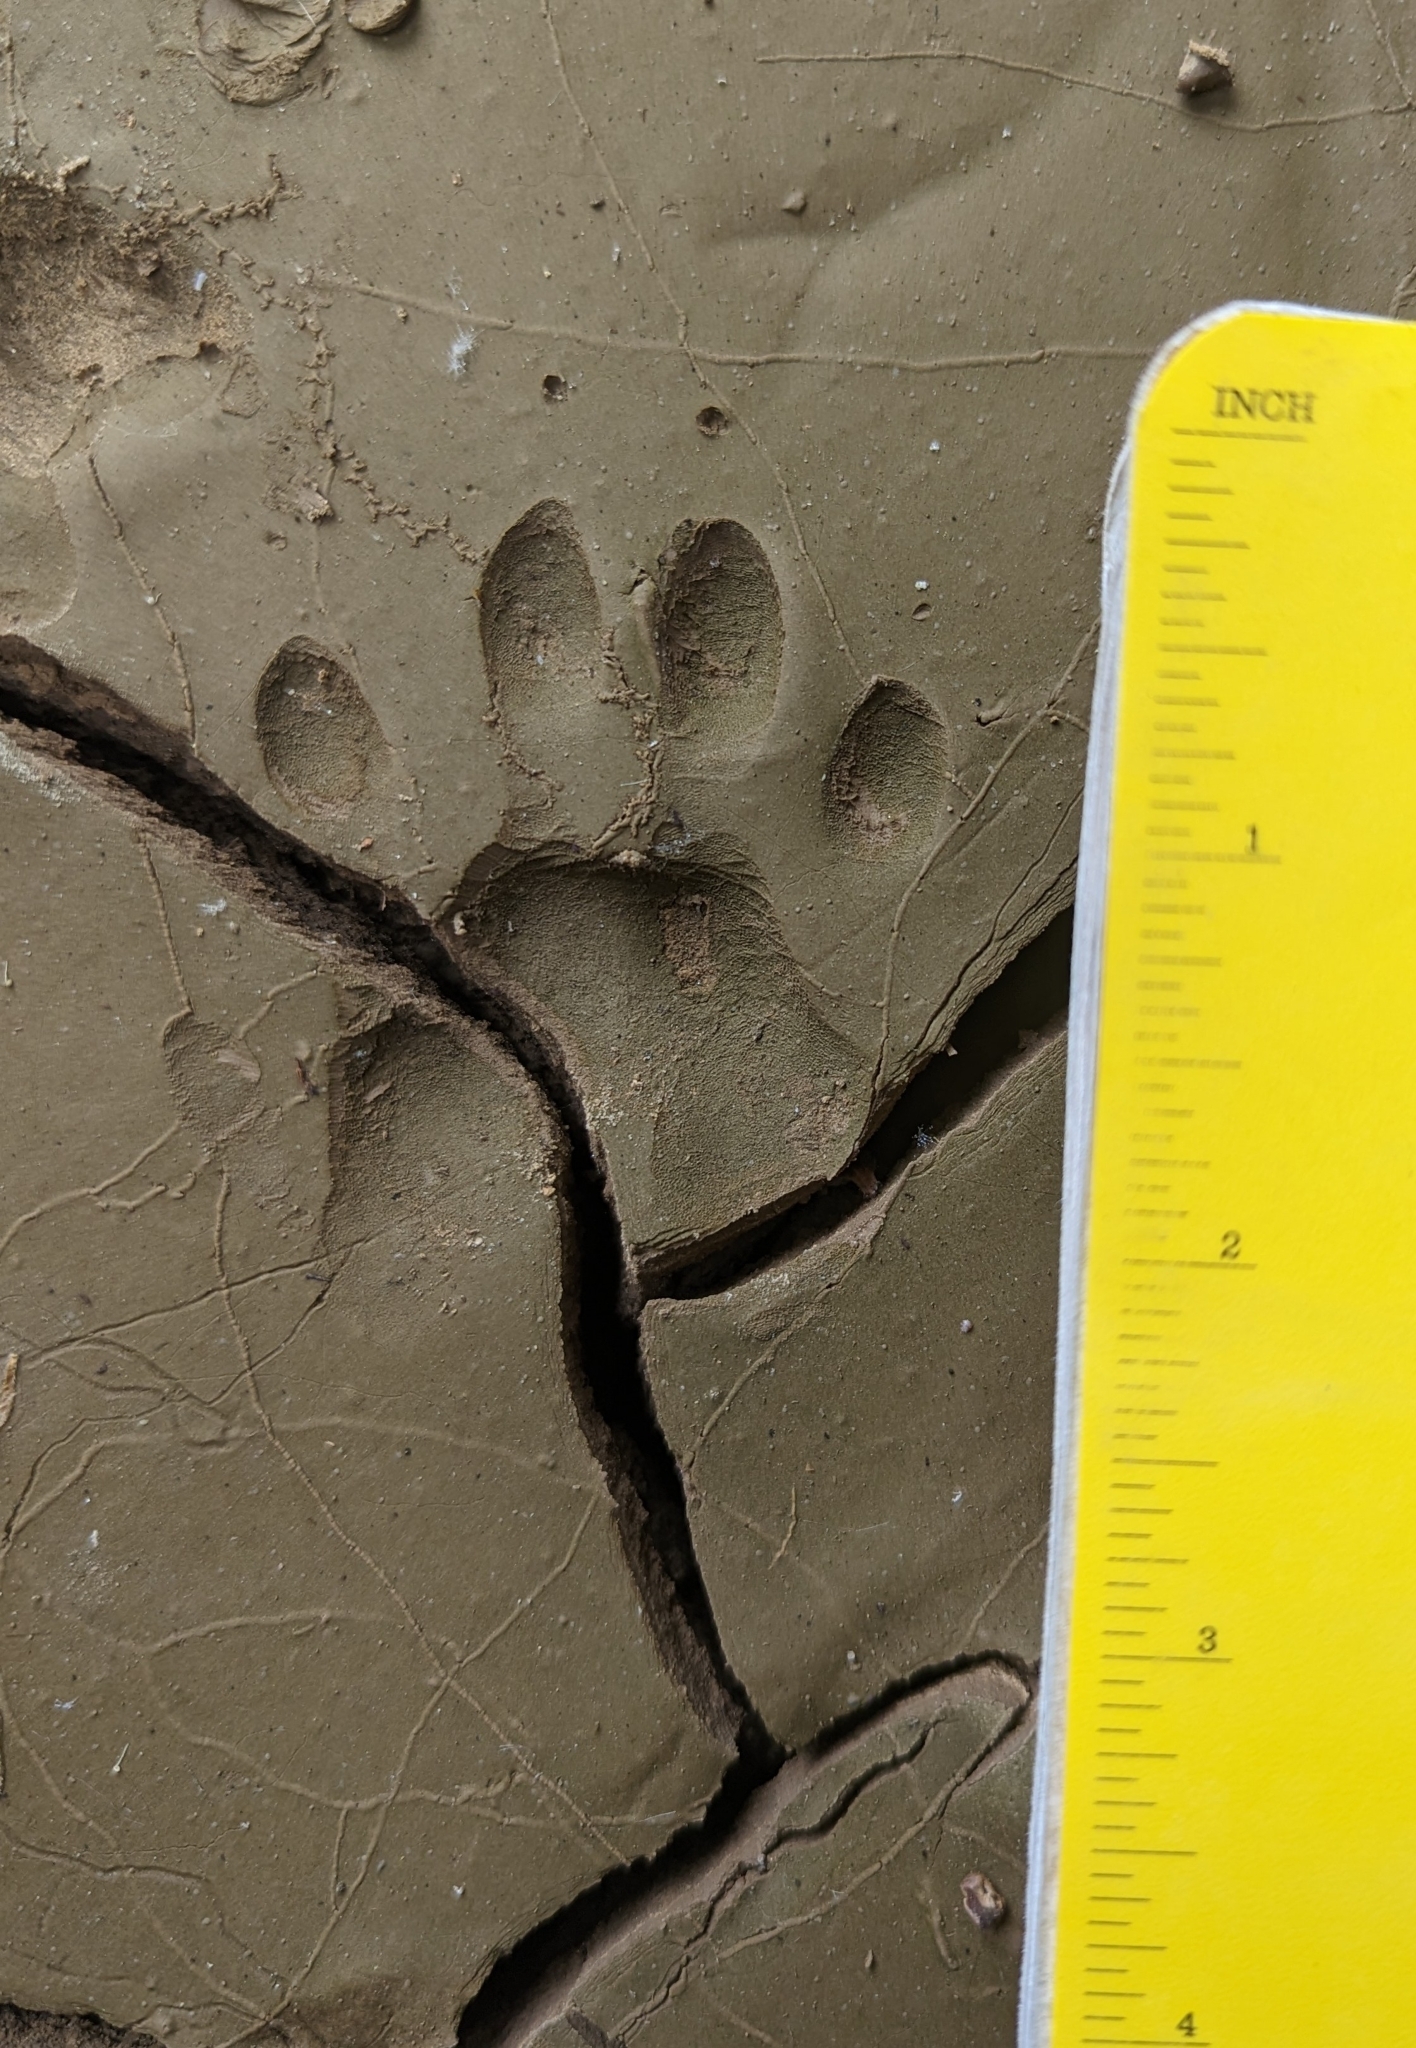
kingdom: Animalia
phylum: Chordata
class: Mammalia
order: Carnivora
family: Procyonidae
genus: Procyon
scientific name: Procyon lotor
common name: Raccoon
